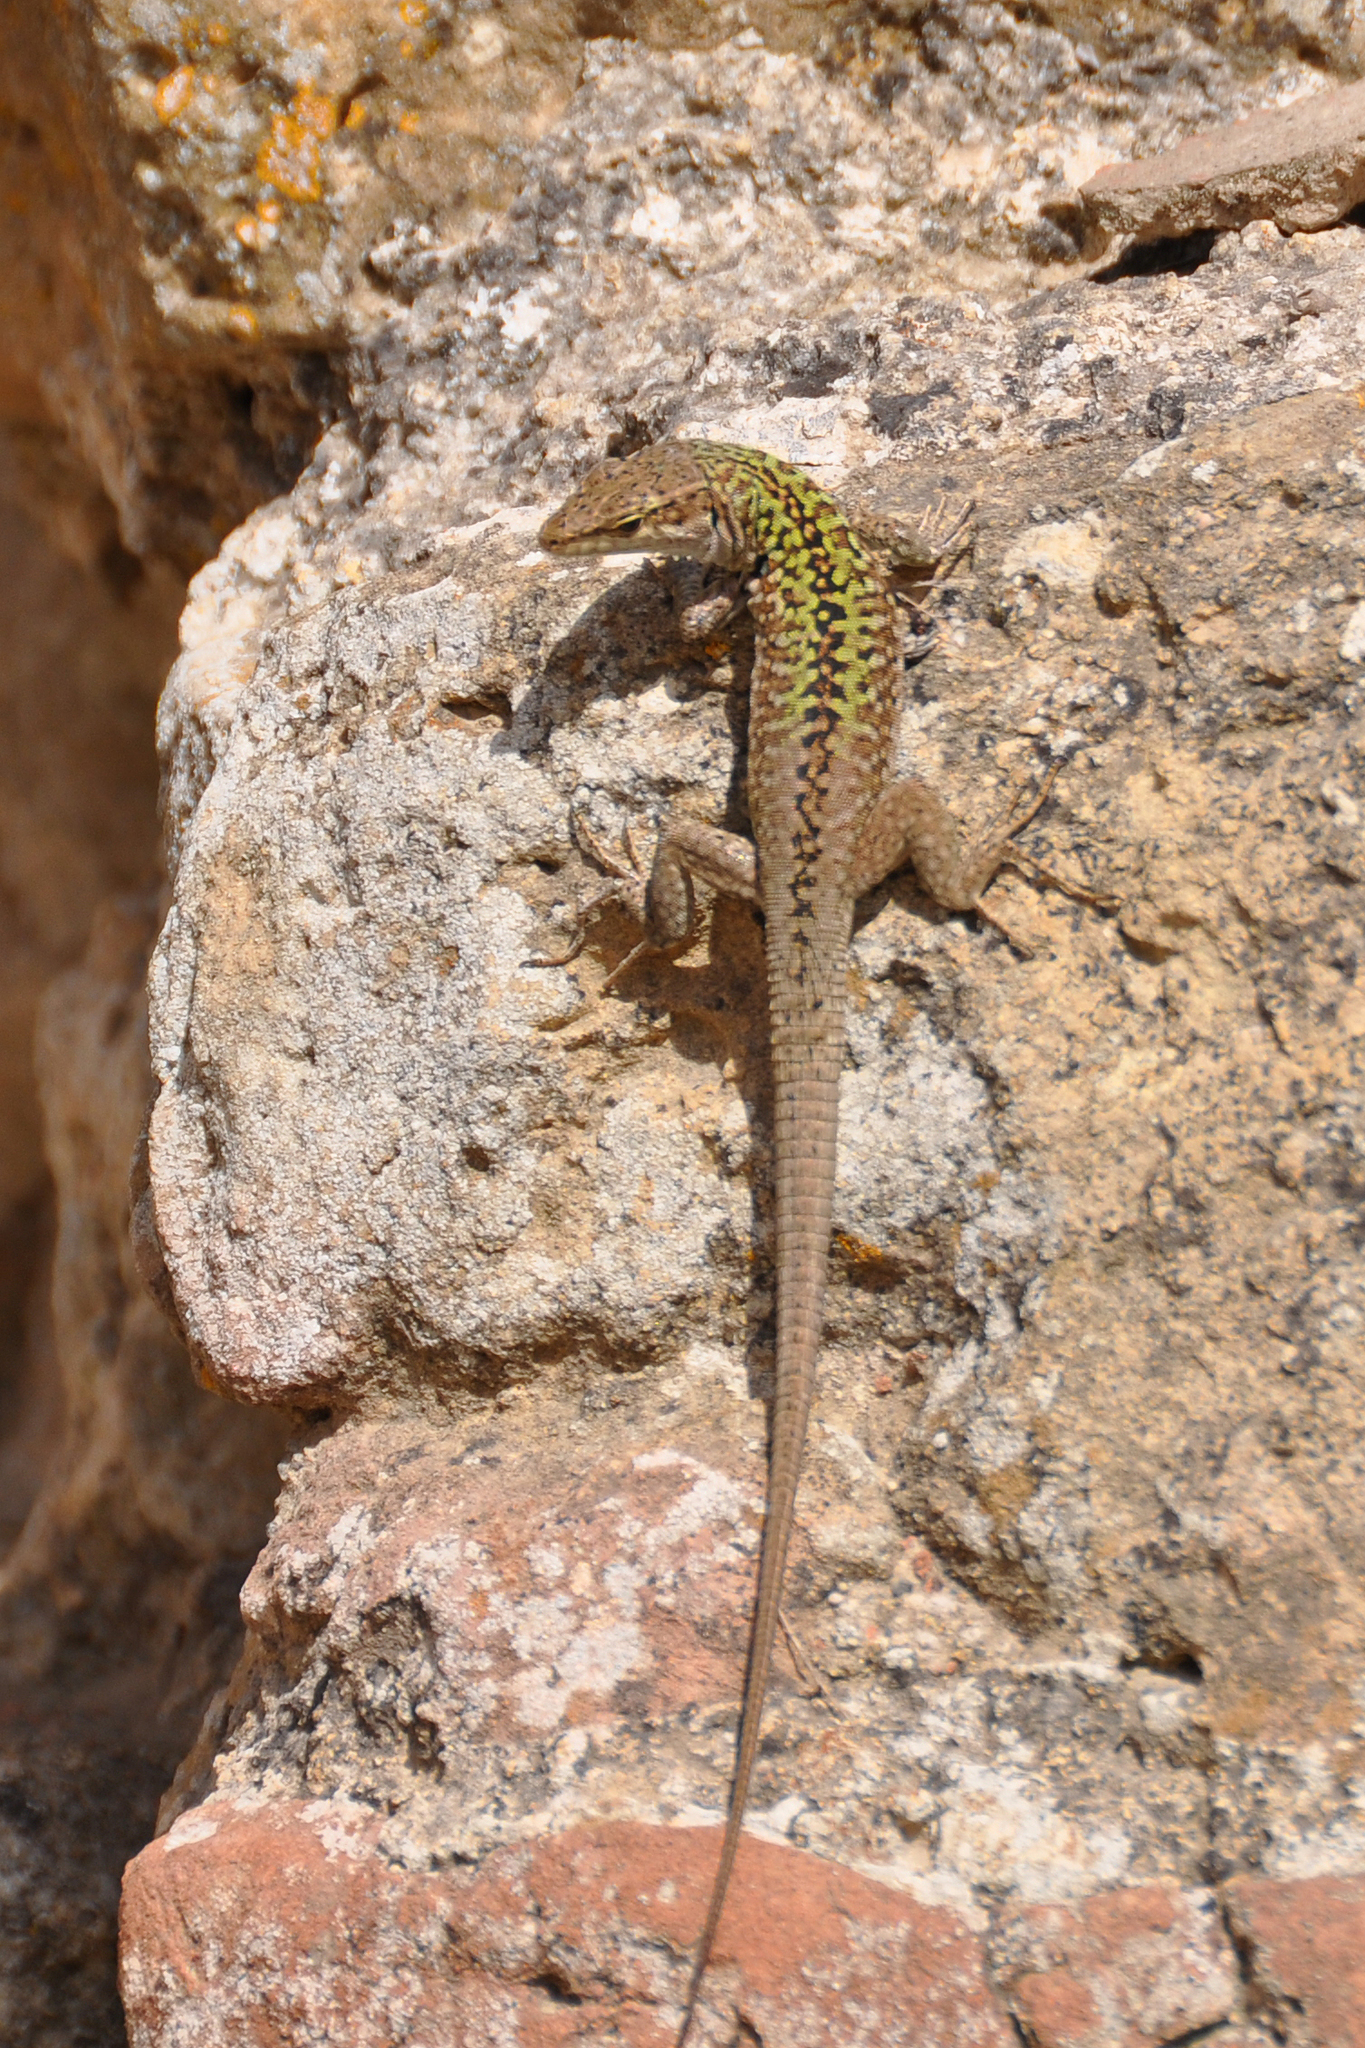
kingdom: Animalia
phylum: Chordata
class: Squamata
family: Lacertidae
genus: Podarcis
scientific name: Podarcis siculus
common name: Italian wall lizard
